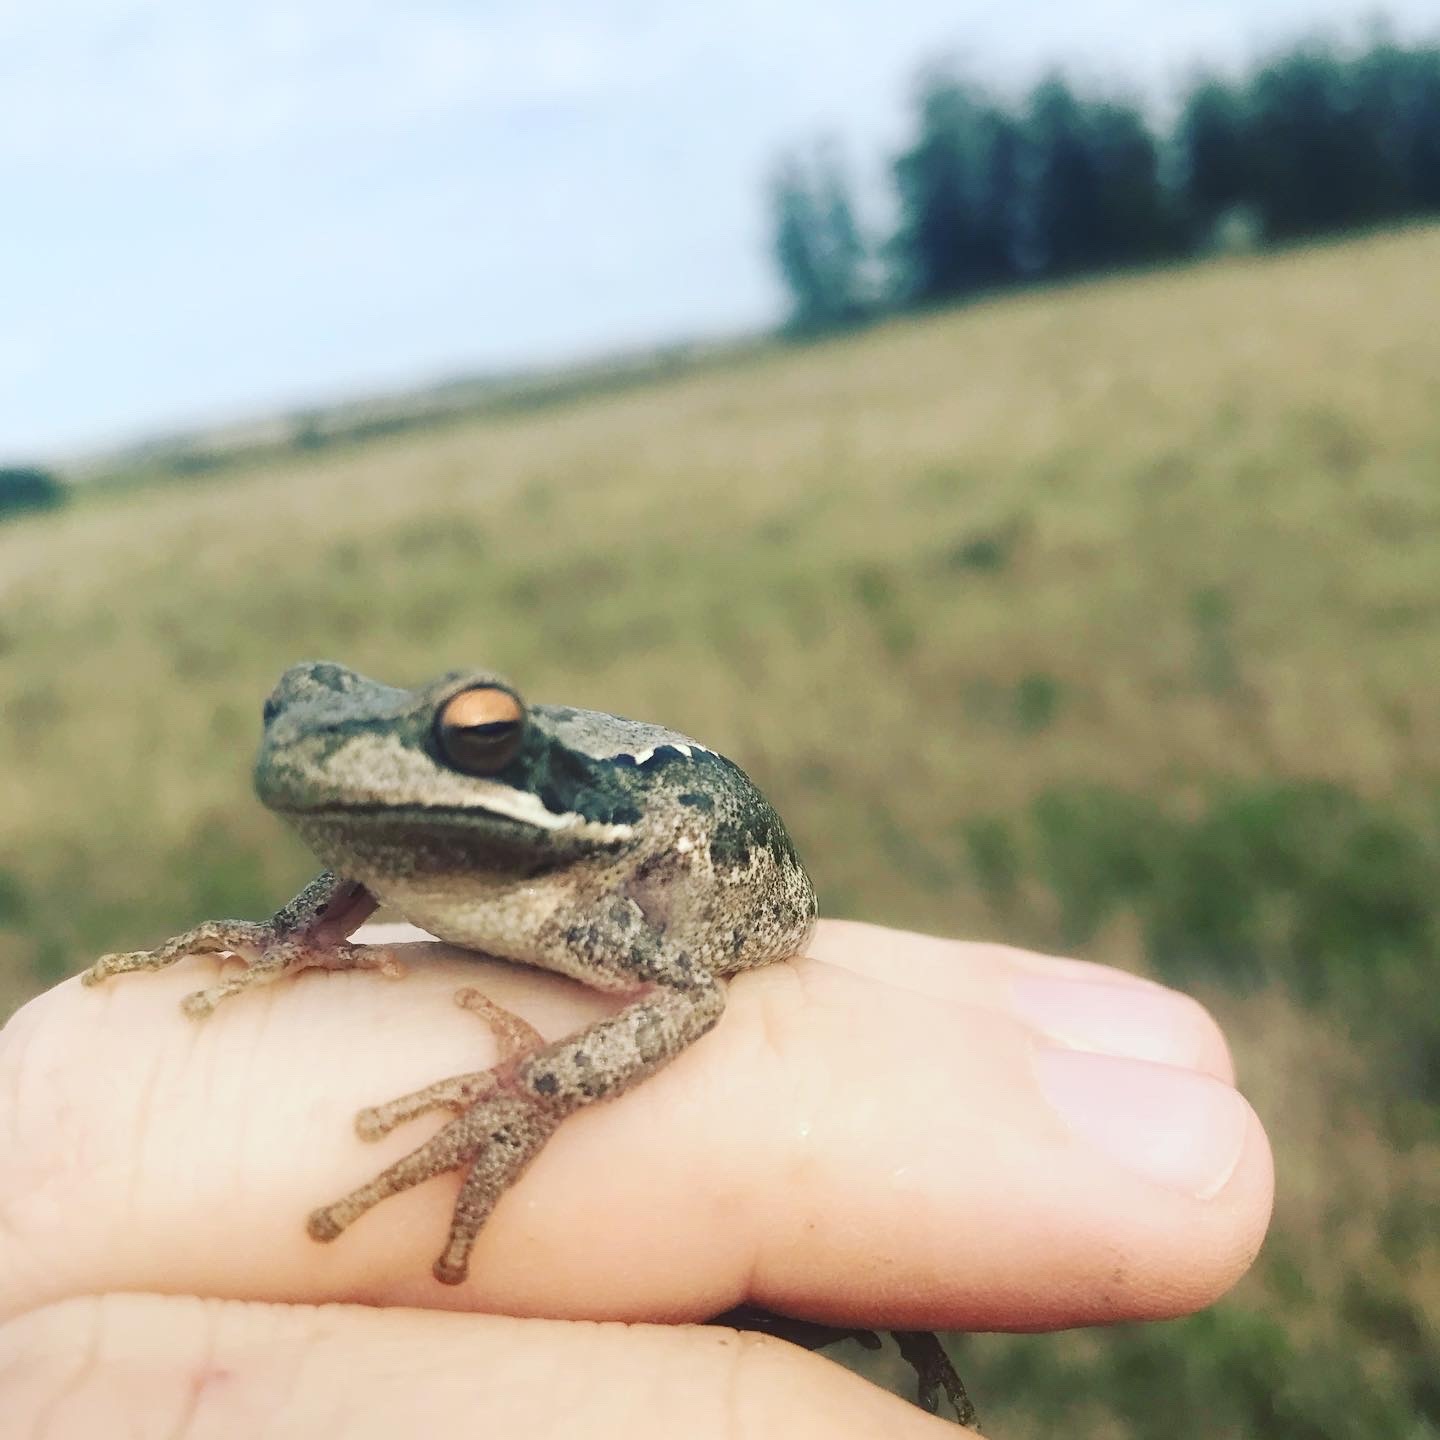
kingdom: Animalia
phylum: Chordata
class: Amphibia
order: Anura
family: Hylidae
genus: Boana
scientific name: Boana pulchella
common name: Montevideo treefrog
